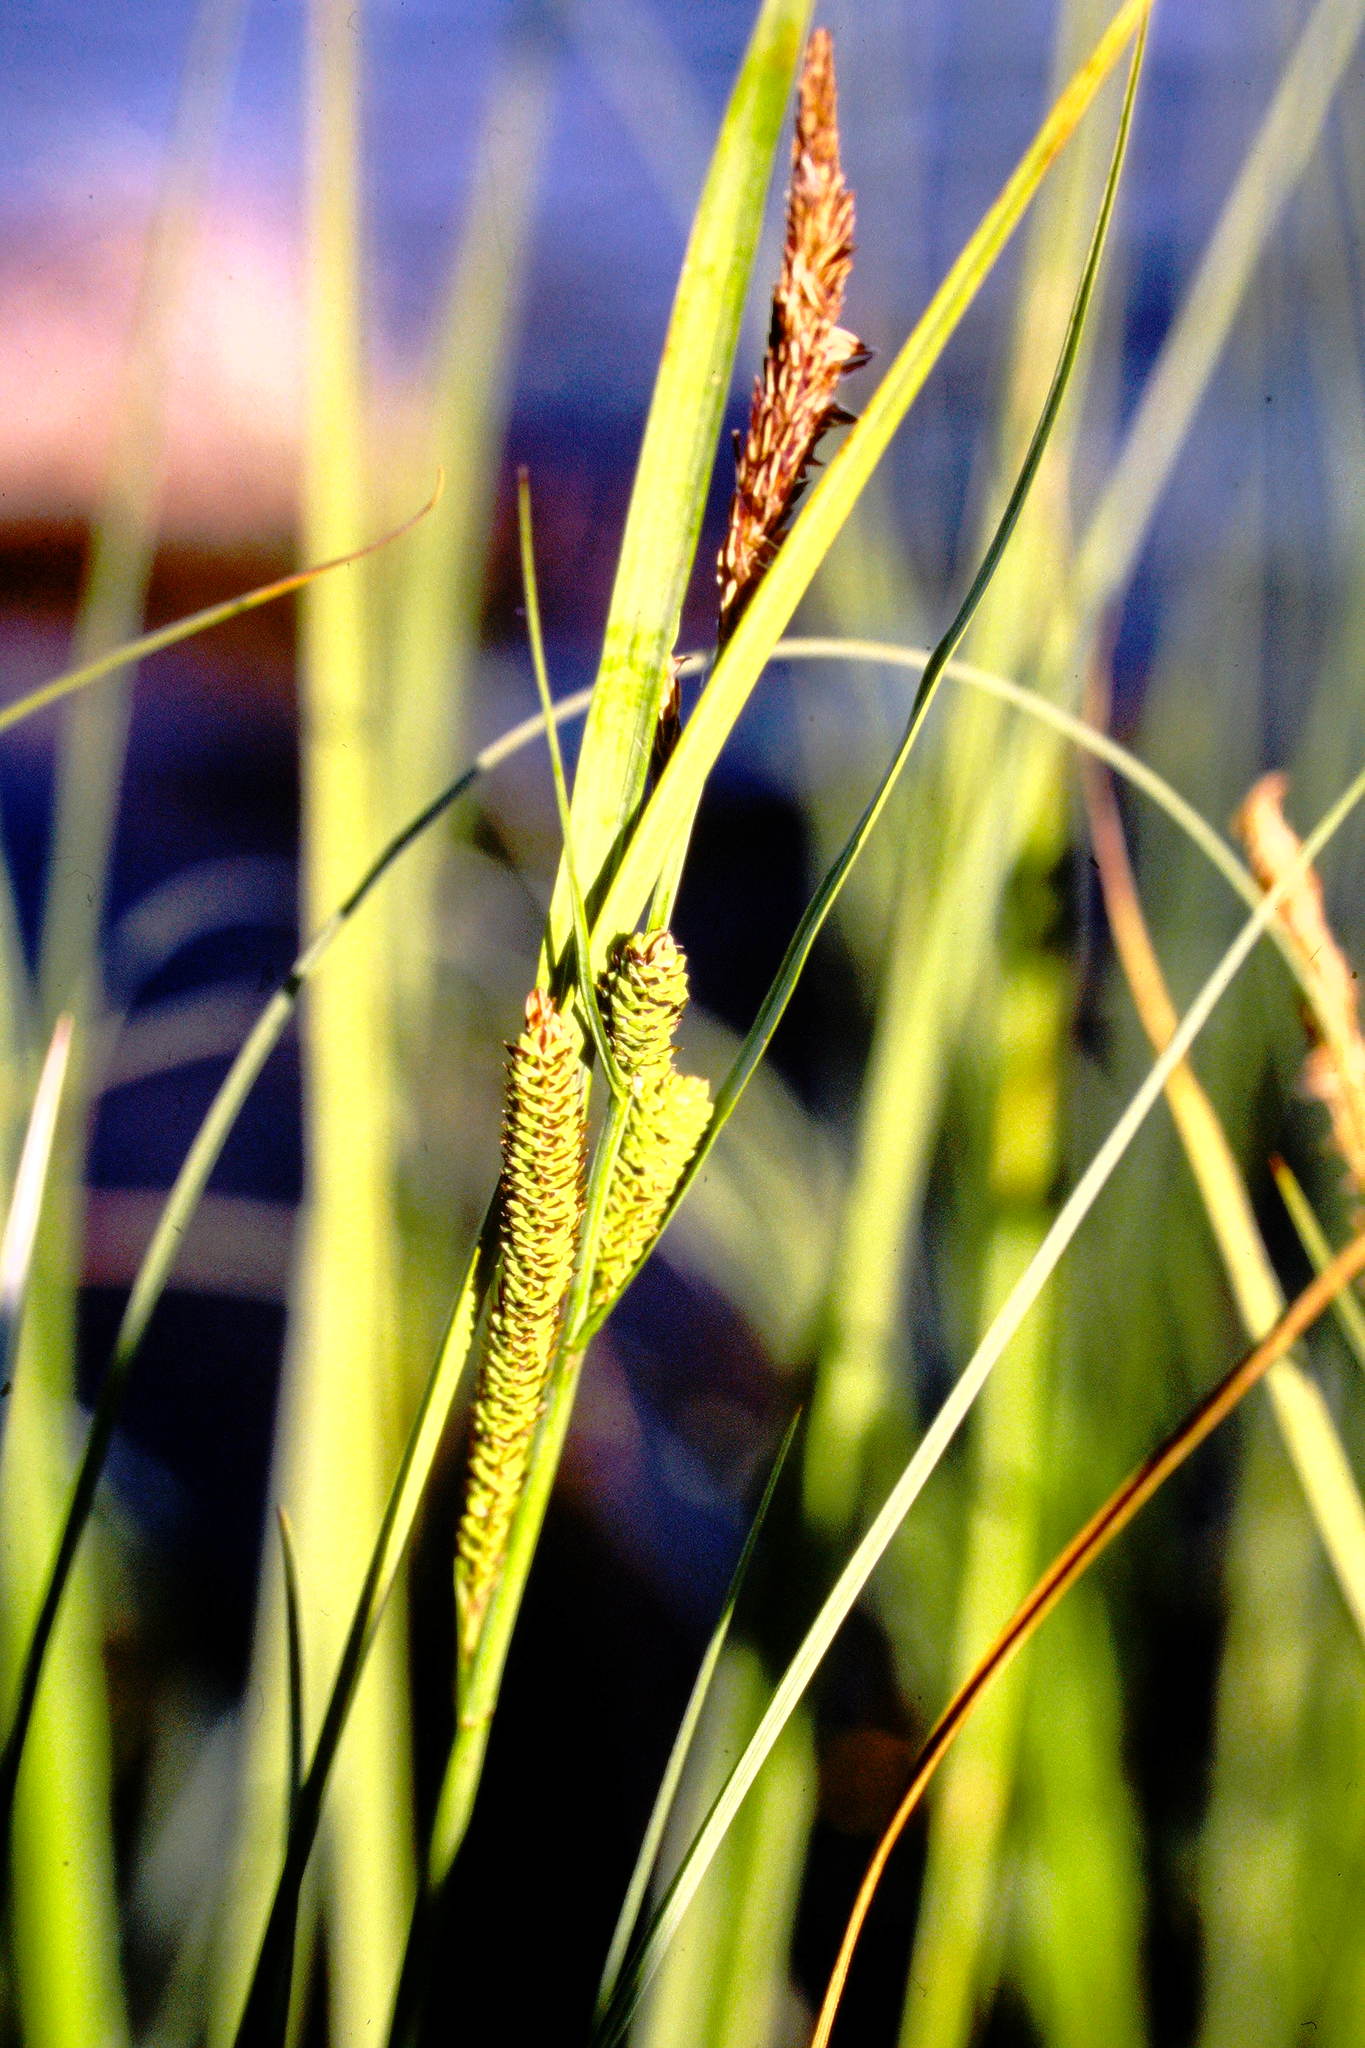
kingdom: Plantae
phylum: Tracheophyta
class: Liliopsida
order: Poales
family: Cyperaceae
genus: Carex
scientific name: Carex aquatilis
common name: Water sedge
